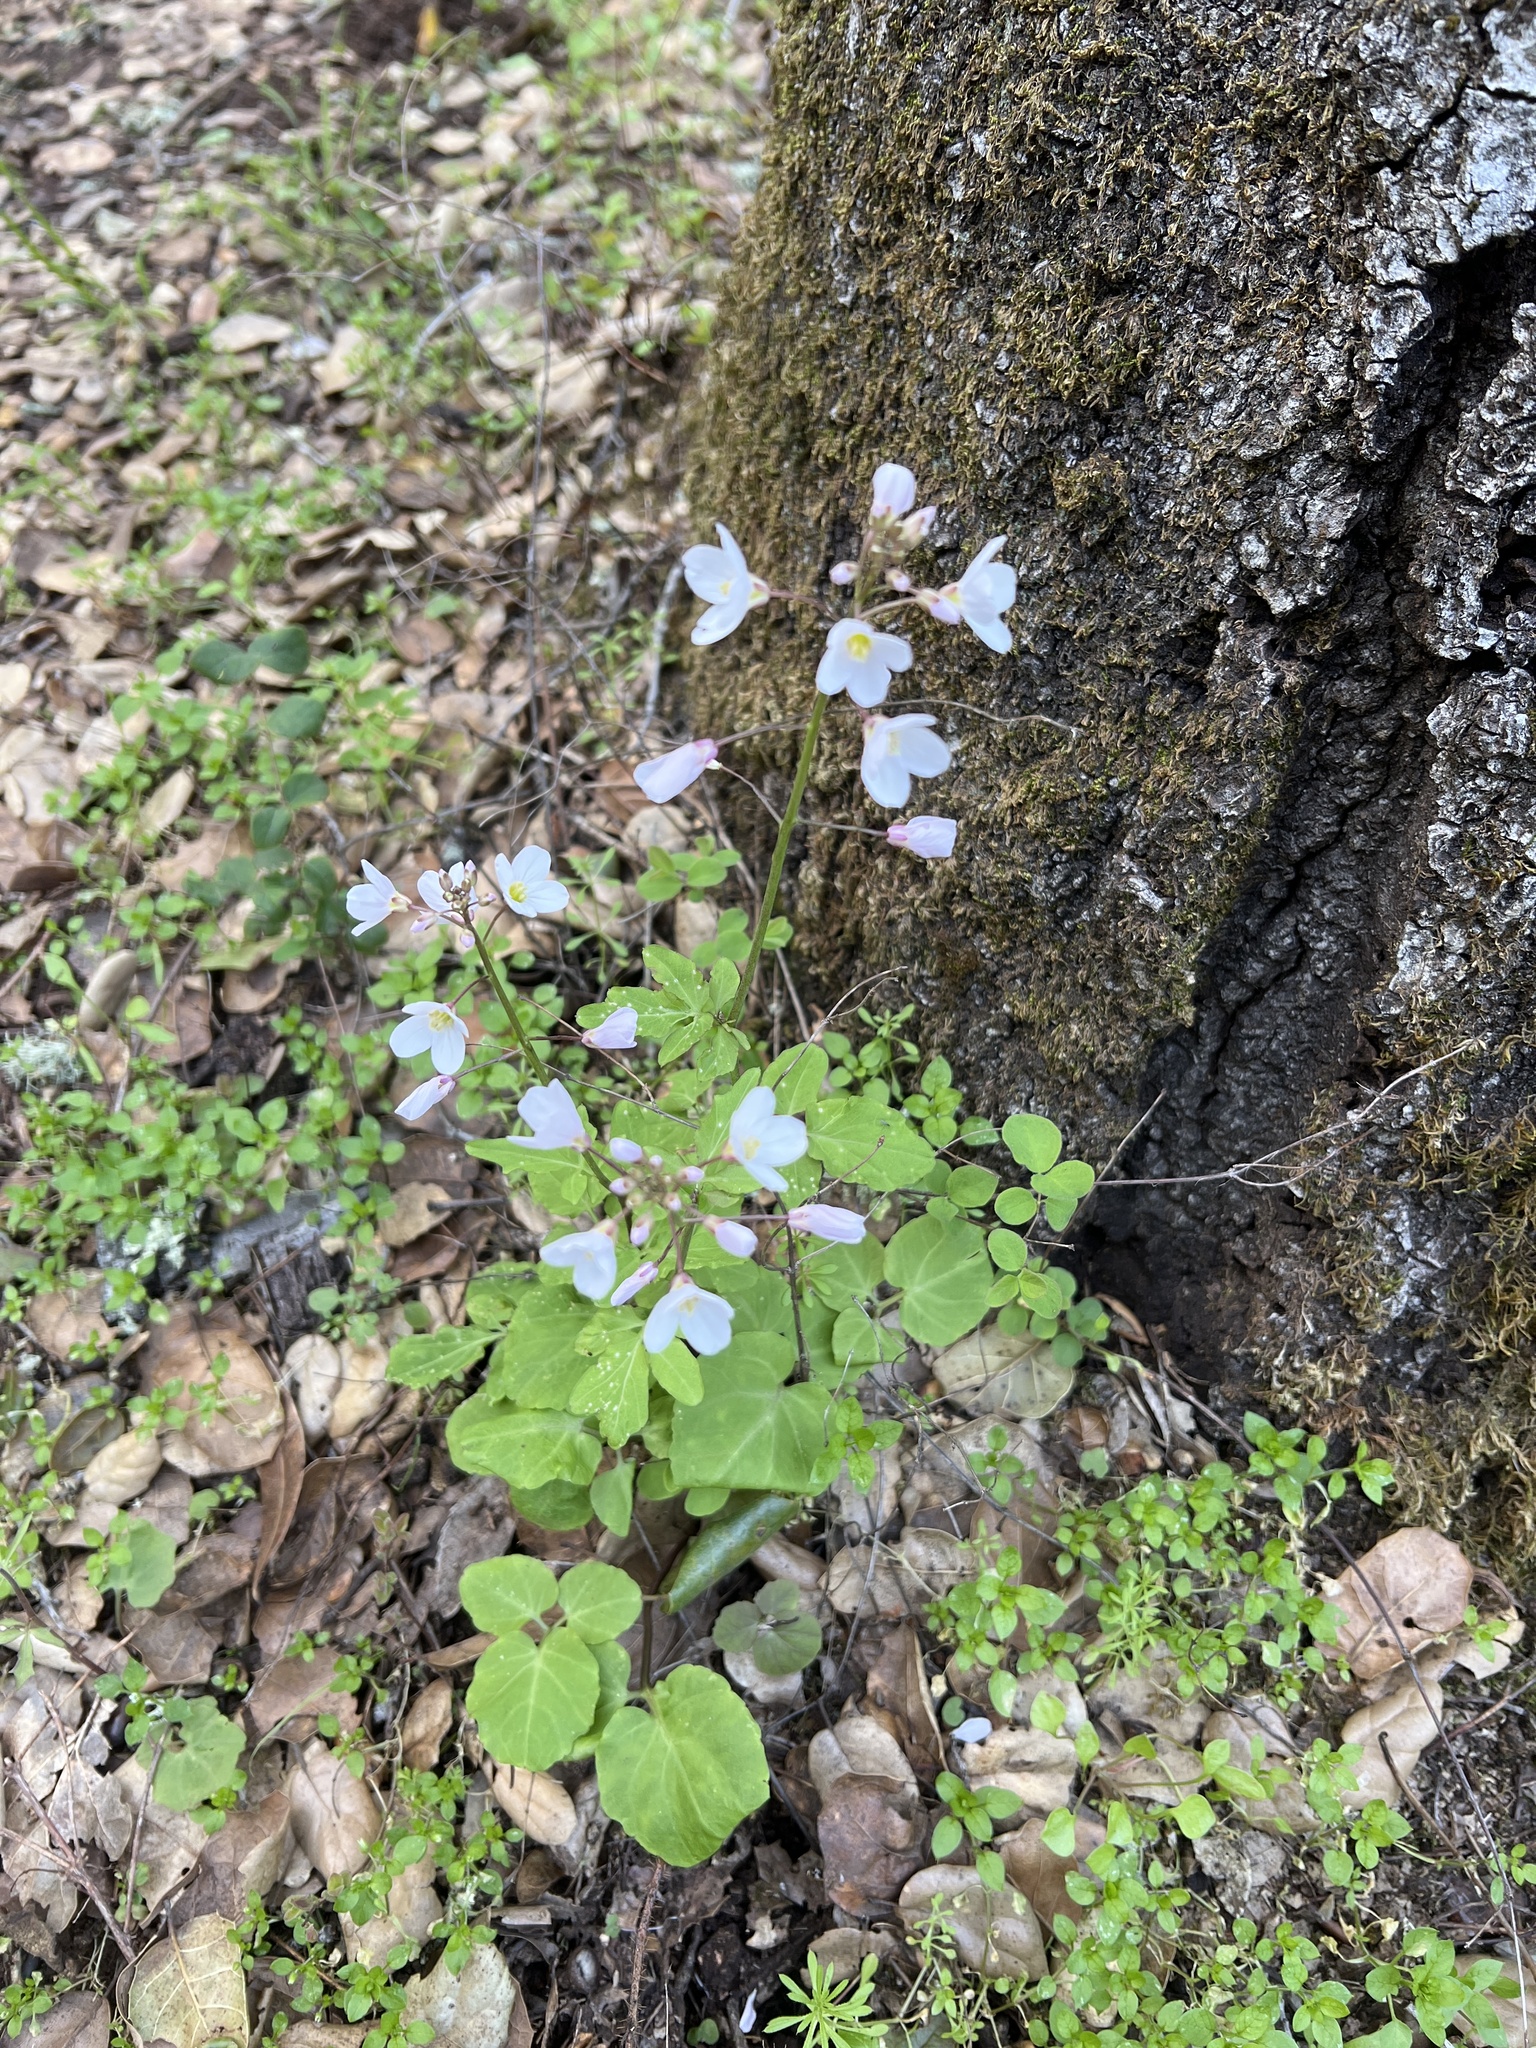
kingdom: Plantae
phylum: Tracheophyta
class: Magnoliopsida
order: Brassicales
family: Brassicaceae
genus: Cardamine
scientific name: Cardamine californica
